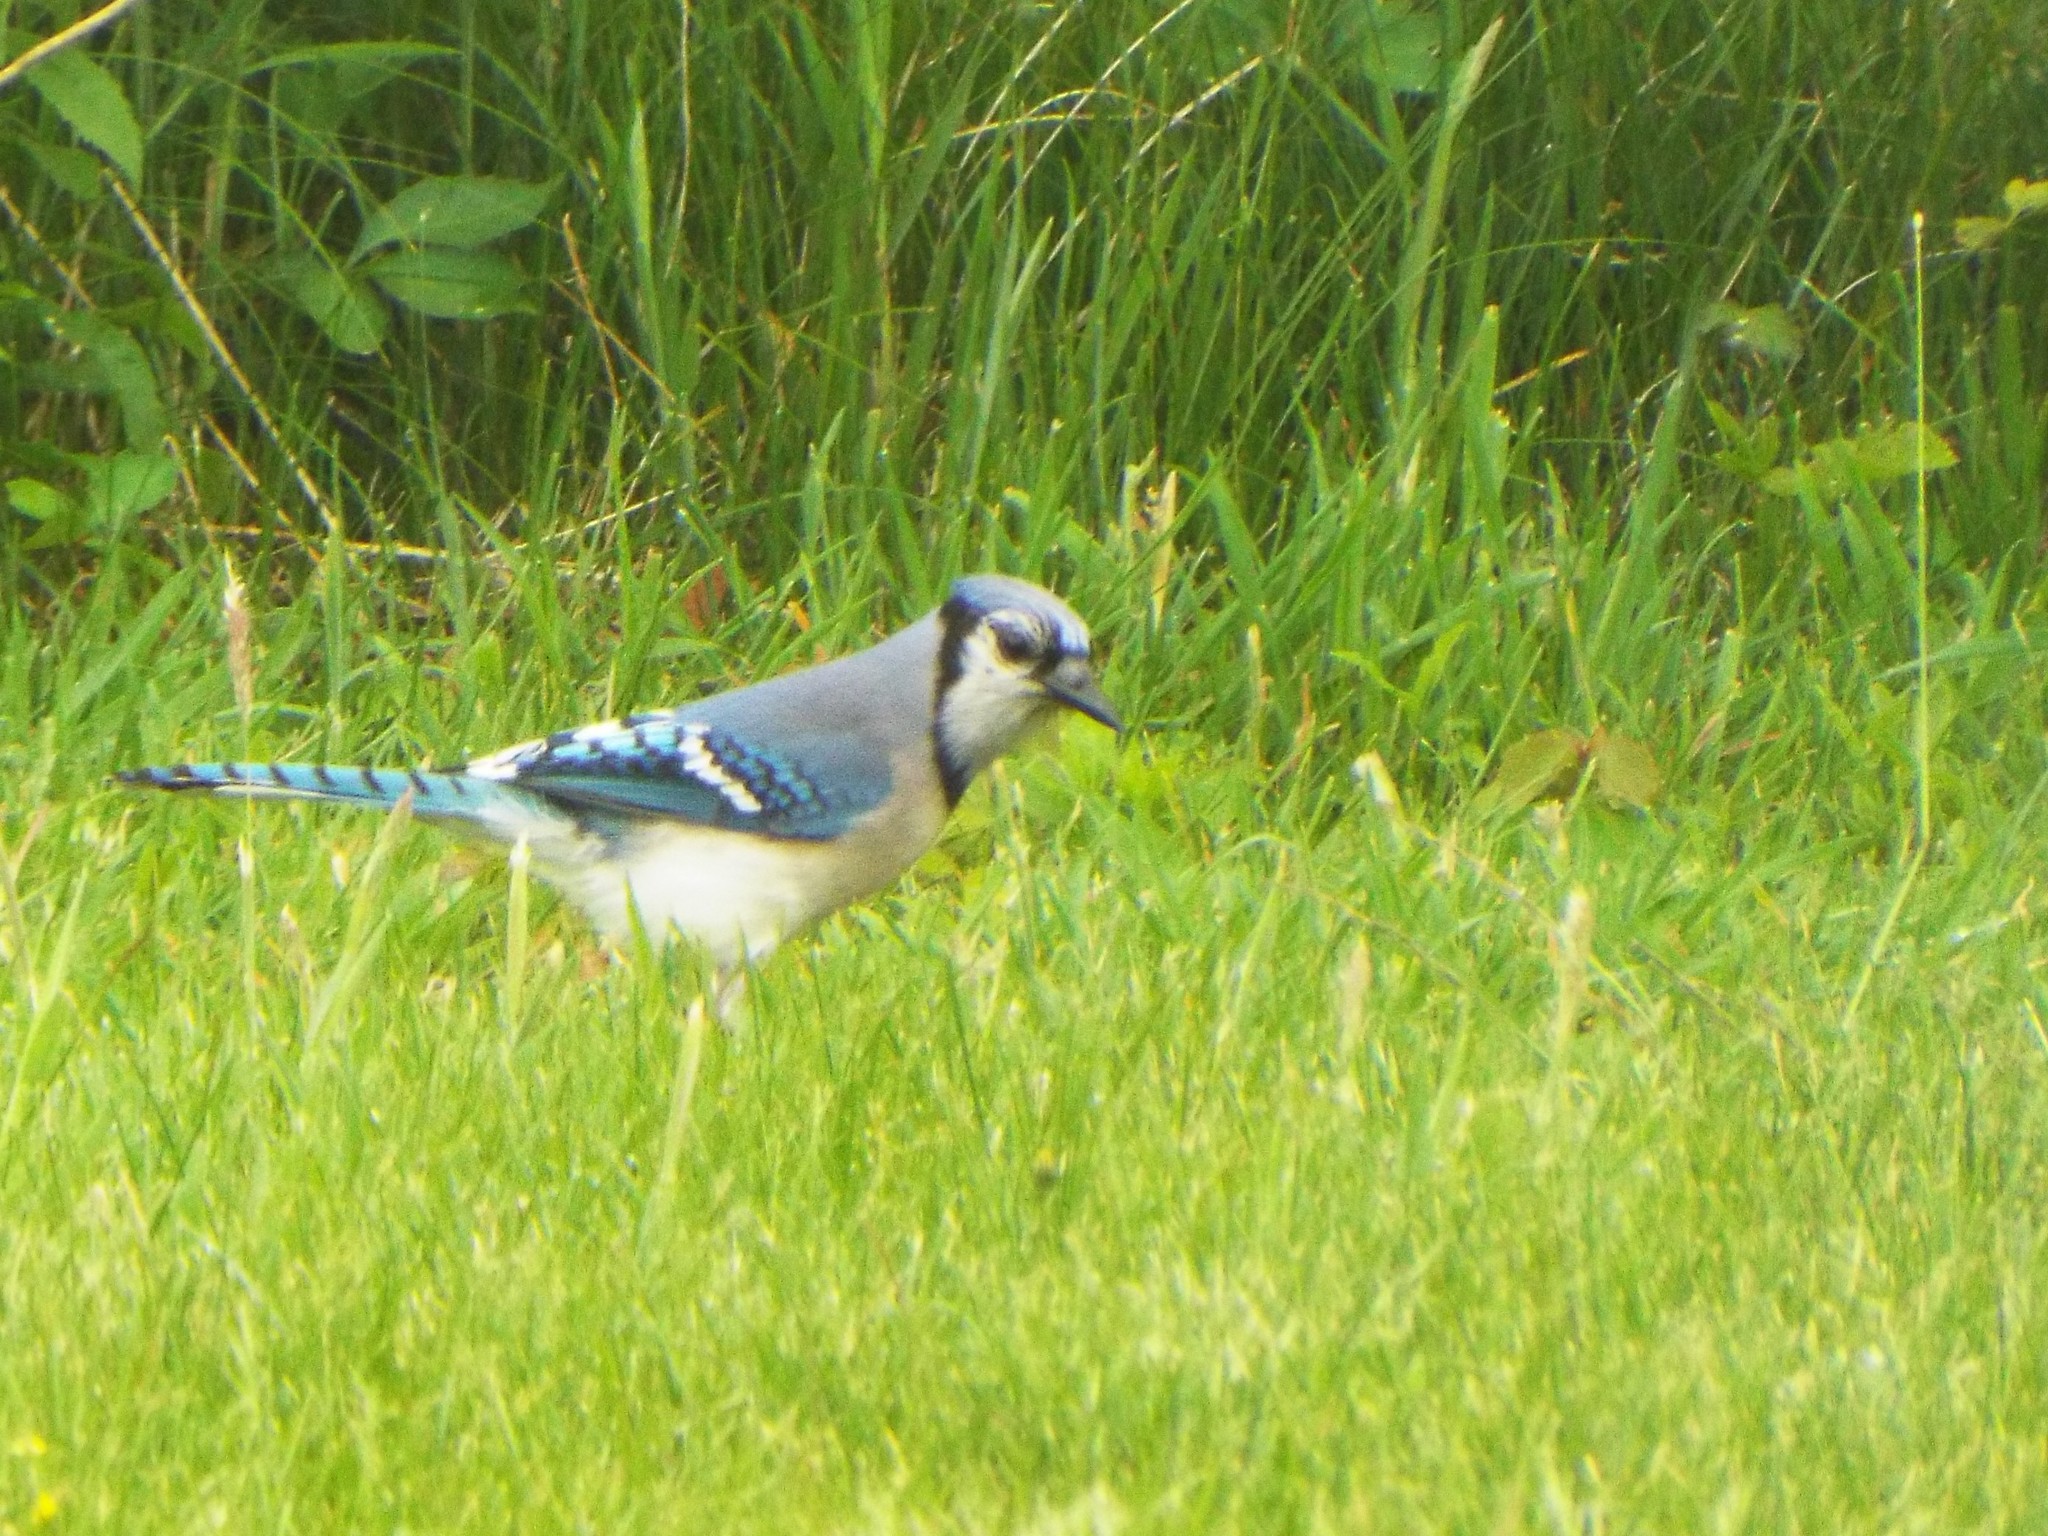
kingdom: Animalia
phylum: Chordata
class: Aves
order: Passeriformes
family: Corvidae
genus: Cyanocitta
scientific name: Cyanocitta cristata
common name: Blue jay
